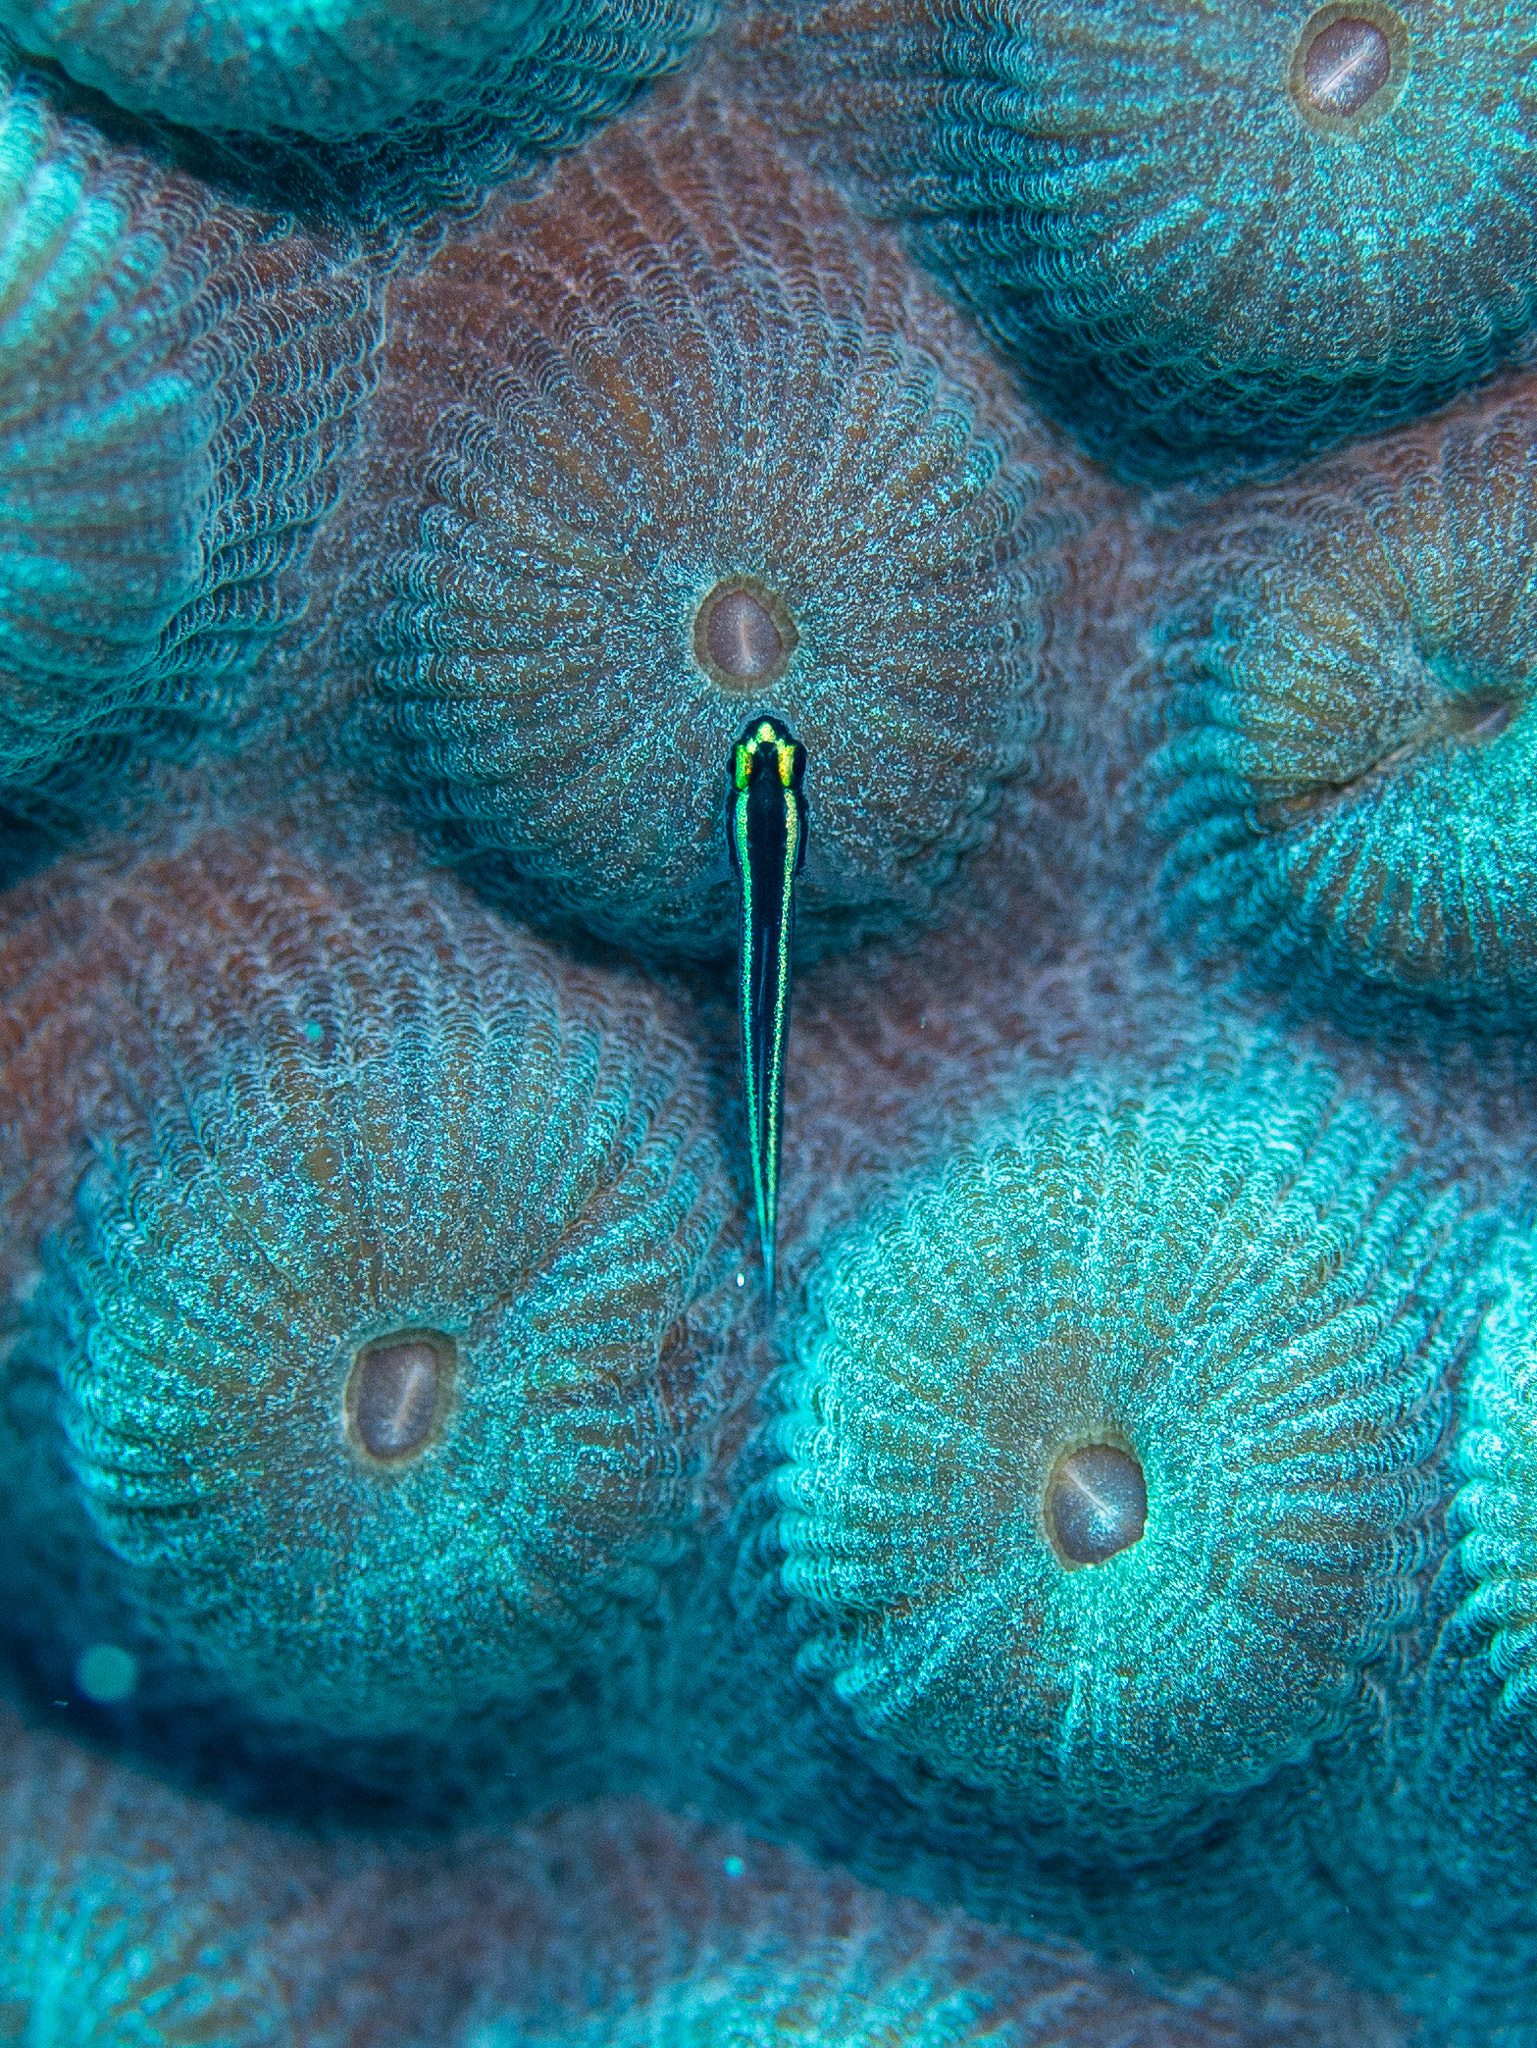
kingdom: Animalia
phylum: Chordata
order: Perciformes
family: Gobiidae
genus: Elacatinus
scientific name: Elacatinus cayman
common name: Cayman cleaner goby
